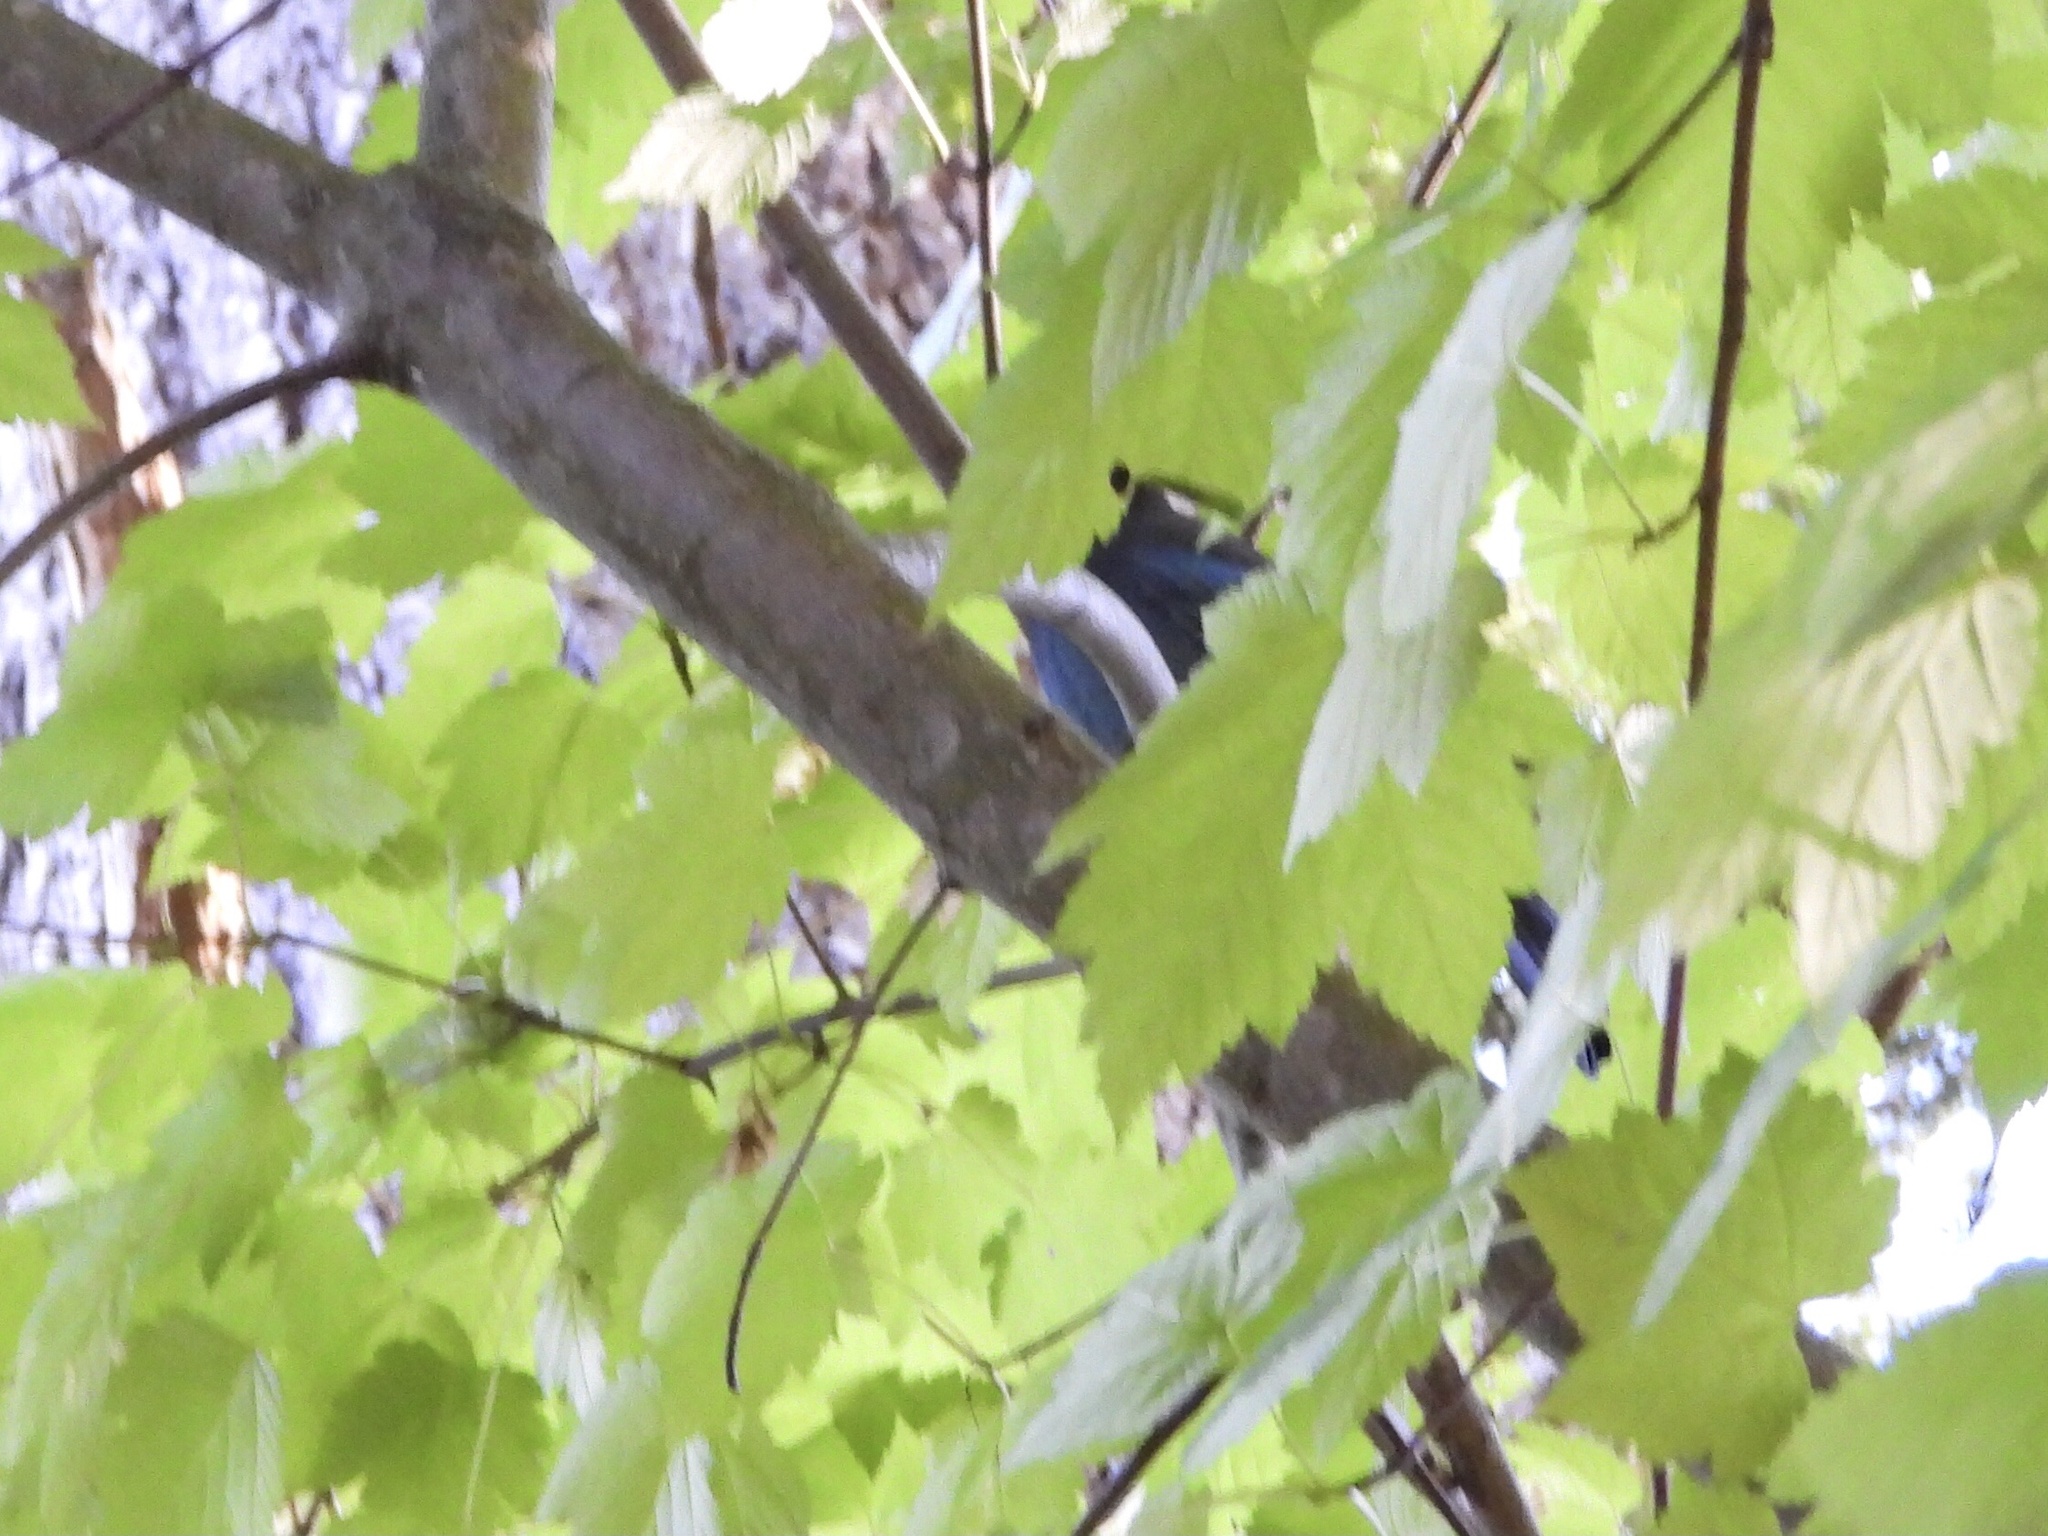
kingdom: Animalia
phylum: Chordata
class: Aves
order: Passeriformes
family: Corvidae
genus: Cyanocitta
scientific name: Cyanocitta stelleri
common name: Steller's jay
